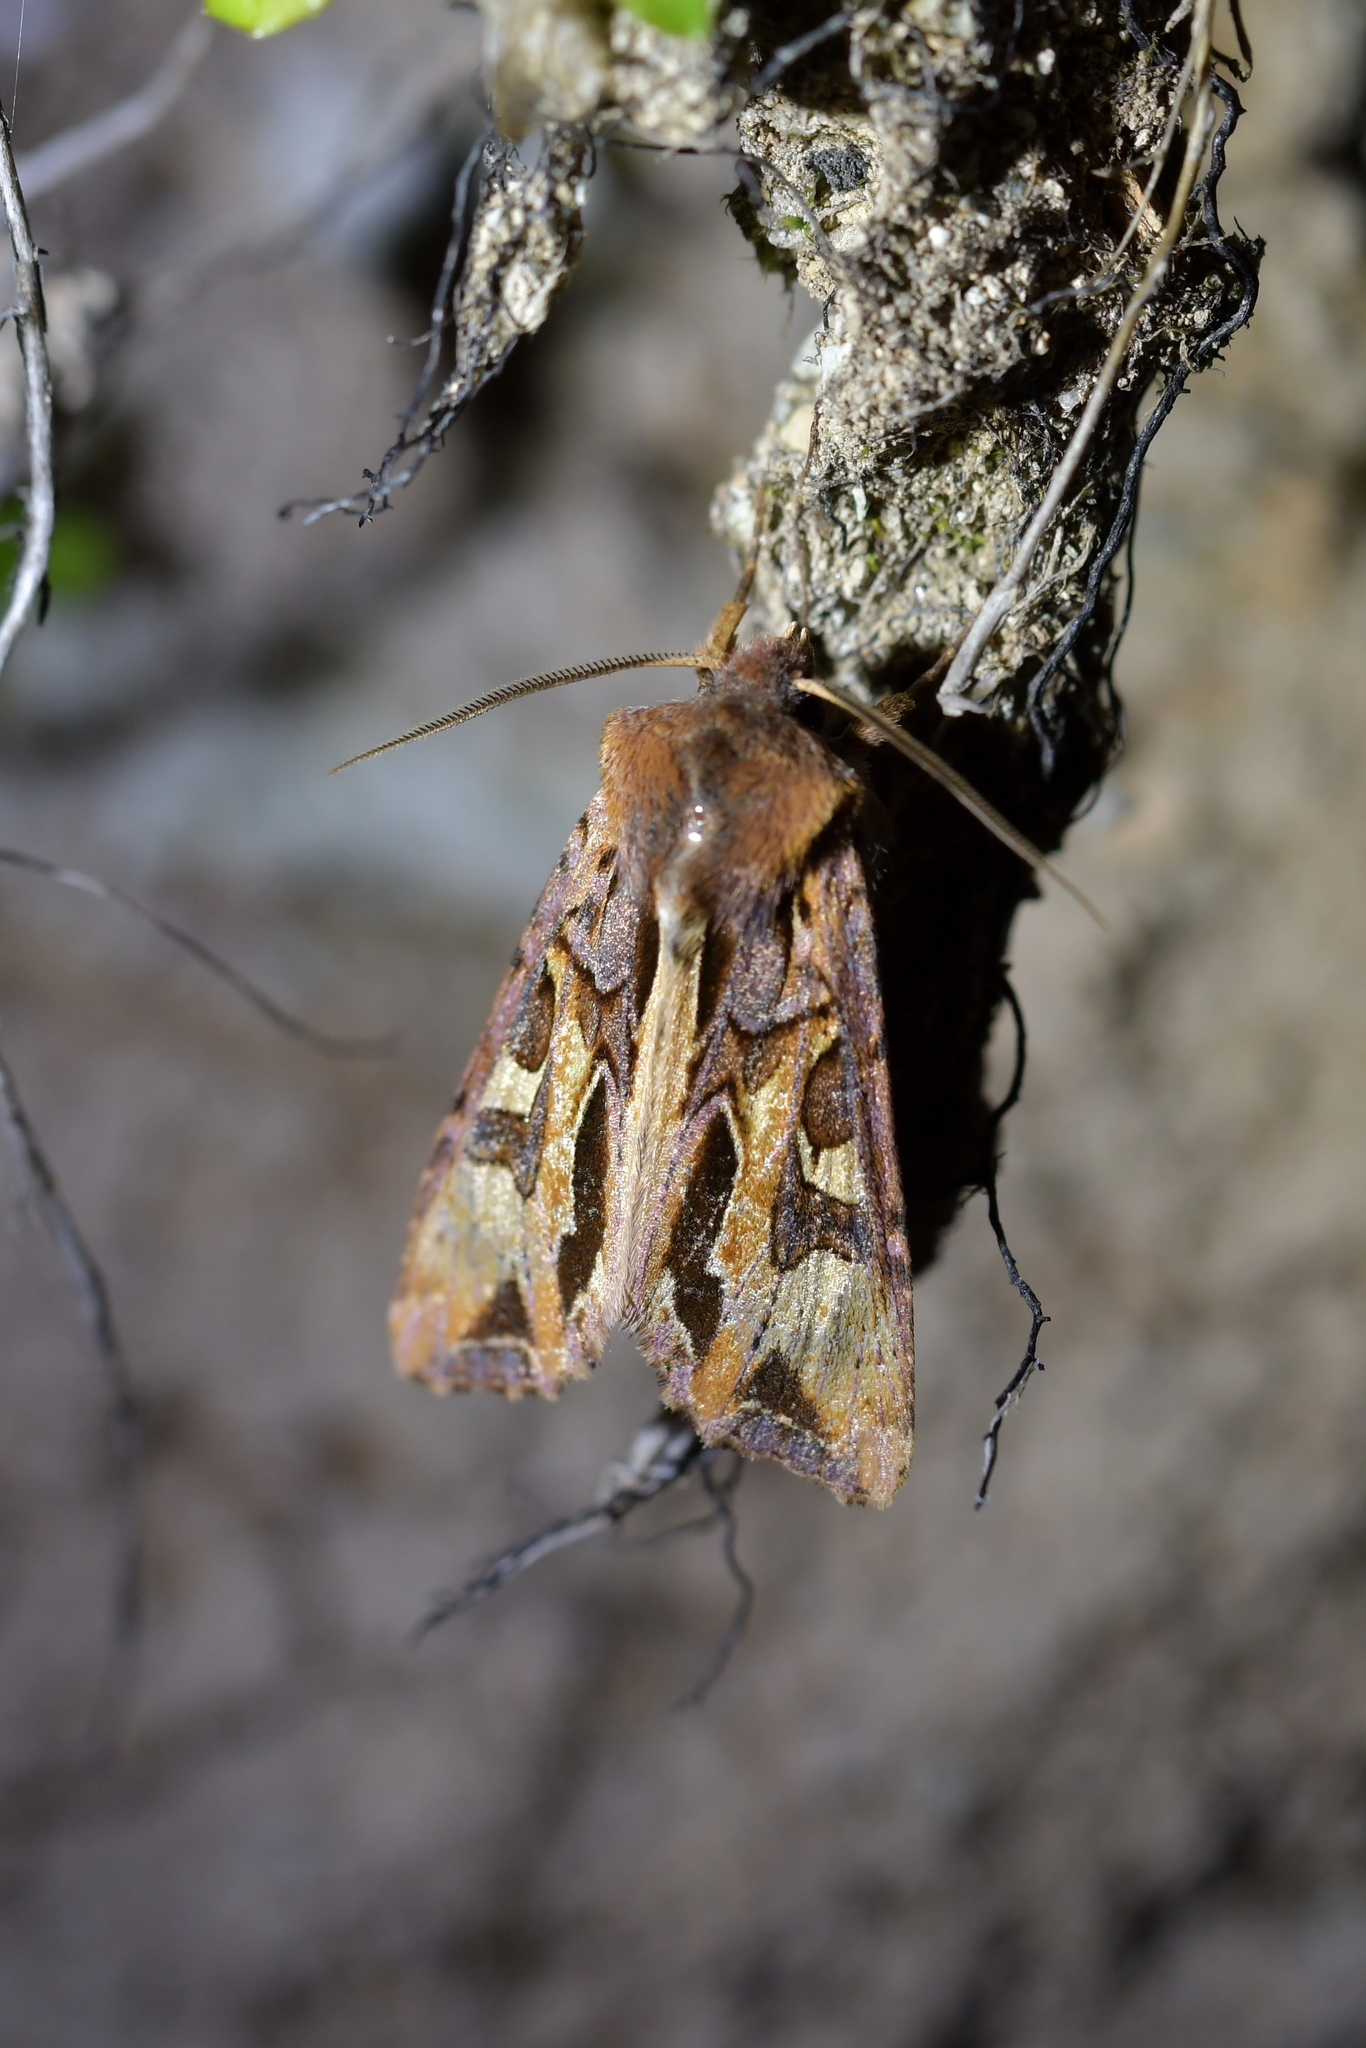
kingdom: Animalia
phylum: Arthropoda
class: Insecta
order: Lepidoptera
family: Noctuidae
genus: Ichneutica
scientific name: Ichneutica
